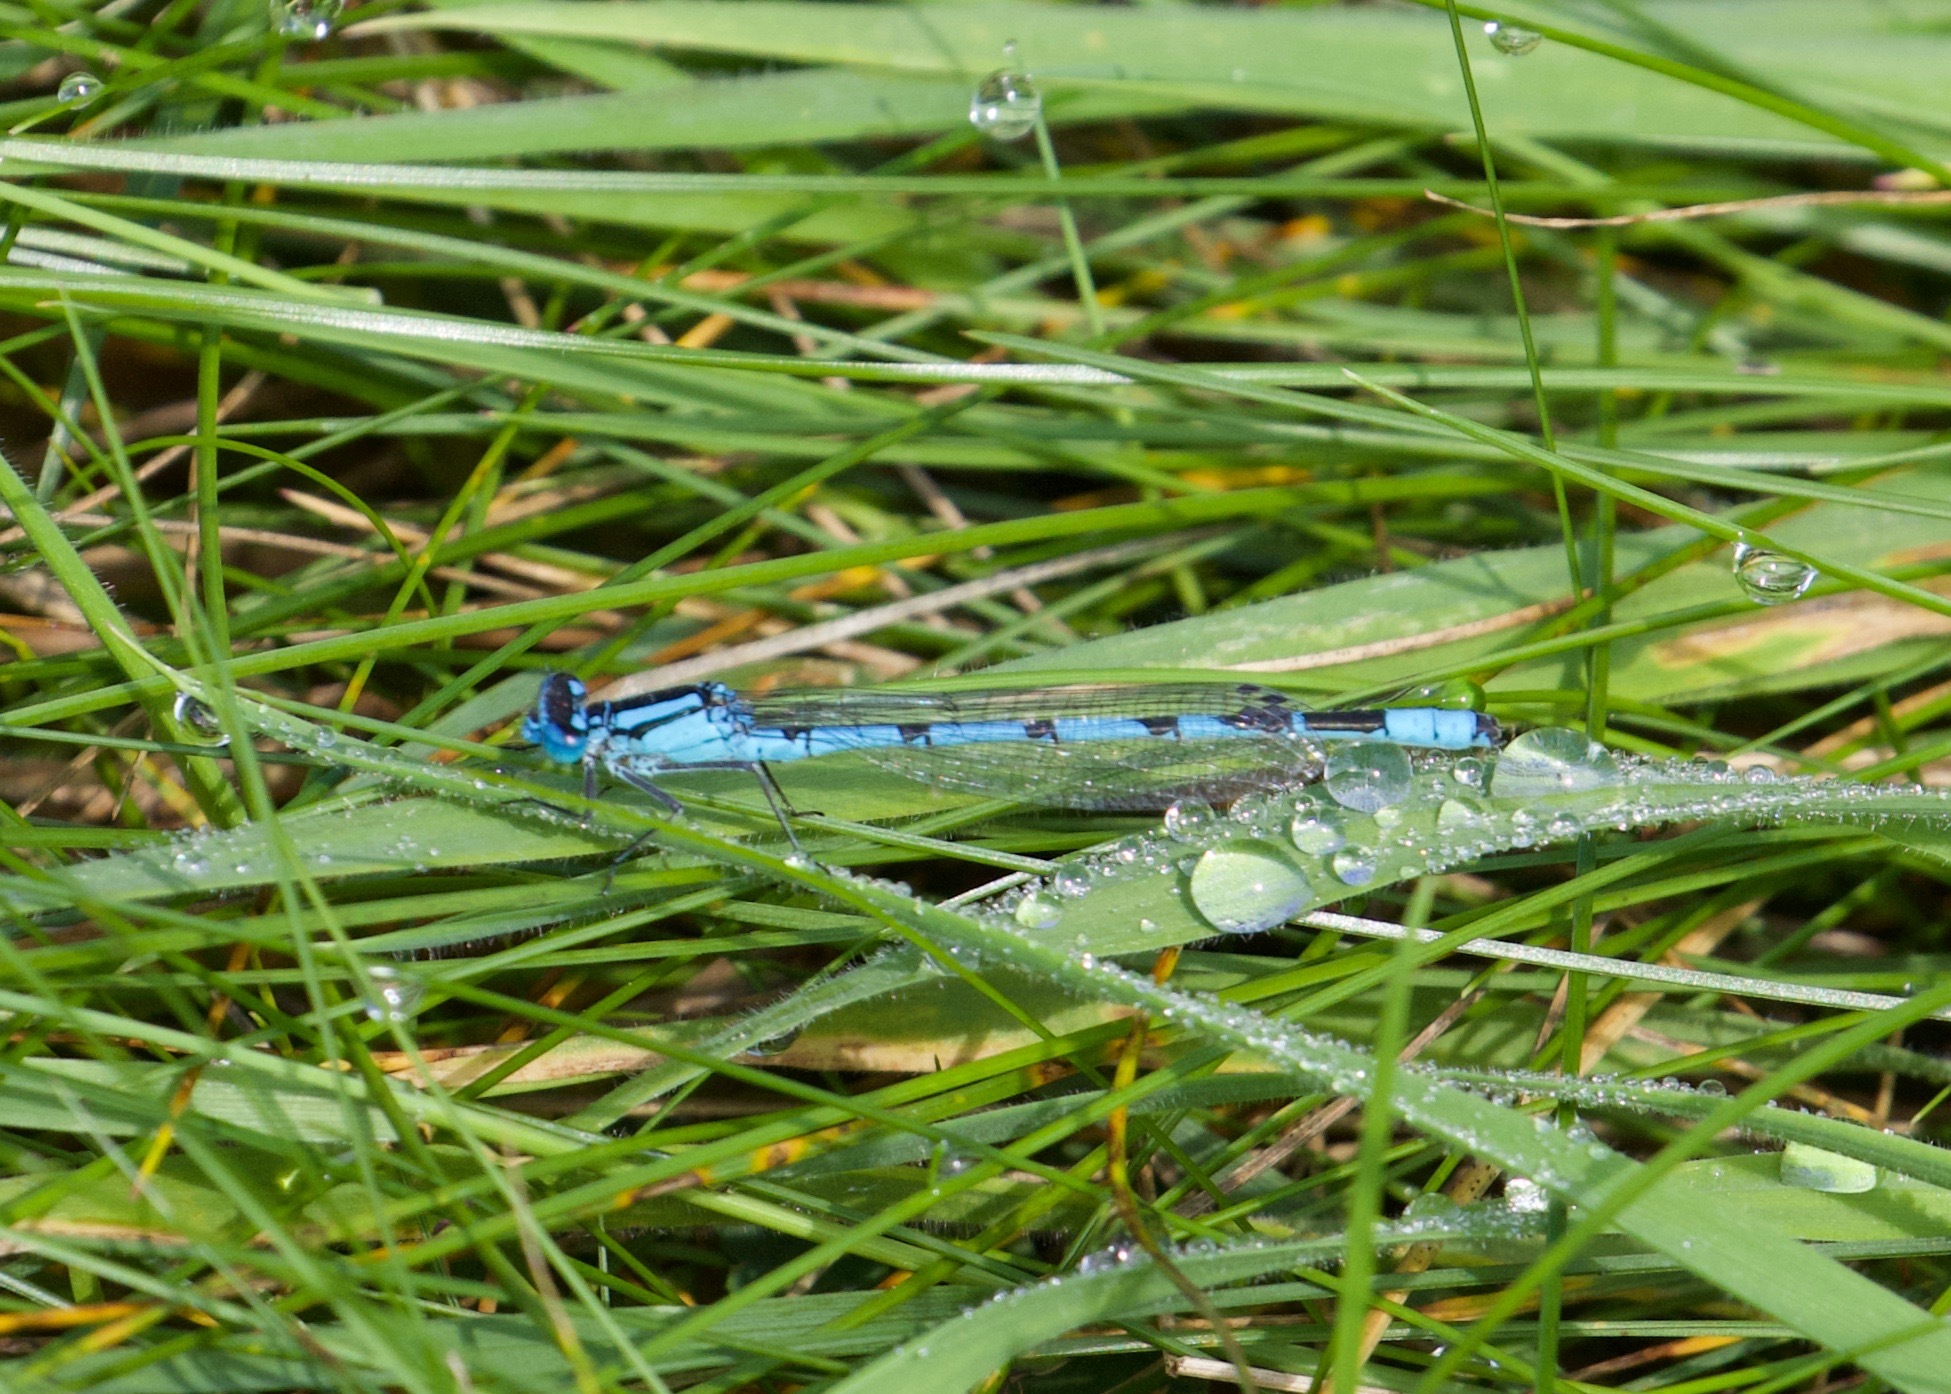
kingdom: Animalia
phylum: Arthropoda
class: Insecta
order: Odonata
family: Coenagrionidae
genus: Enallagma
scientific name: Enallagma cyathigerum
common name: Common blue damselfly
